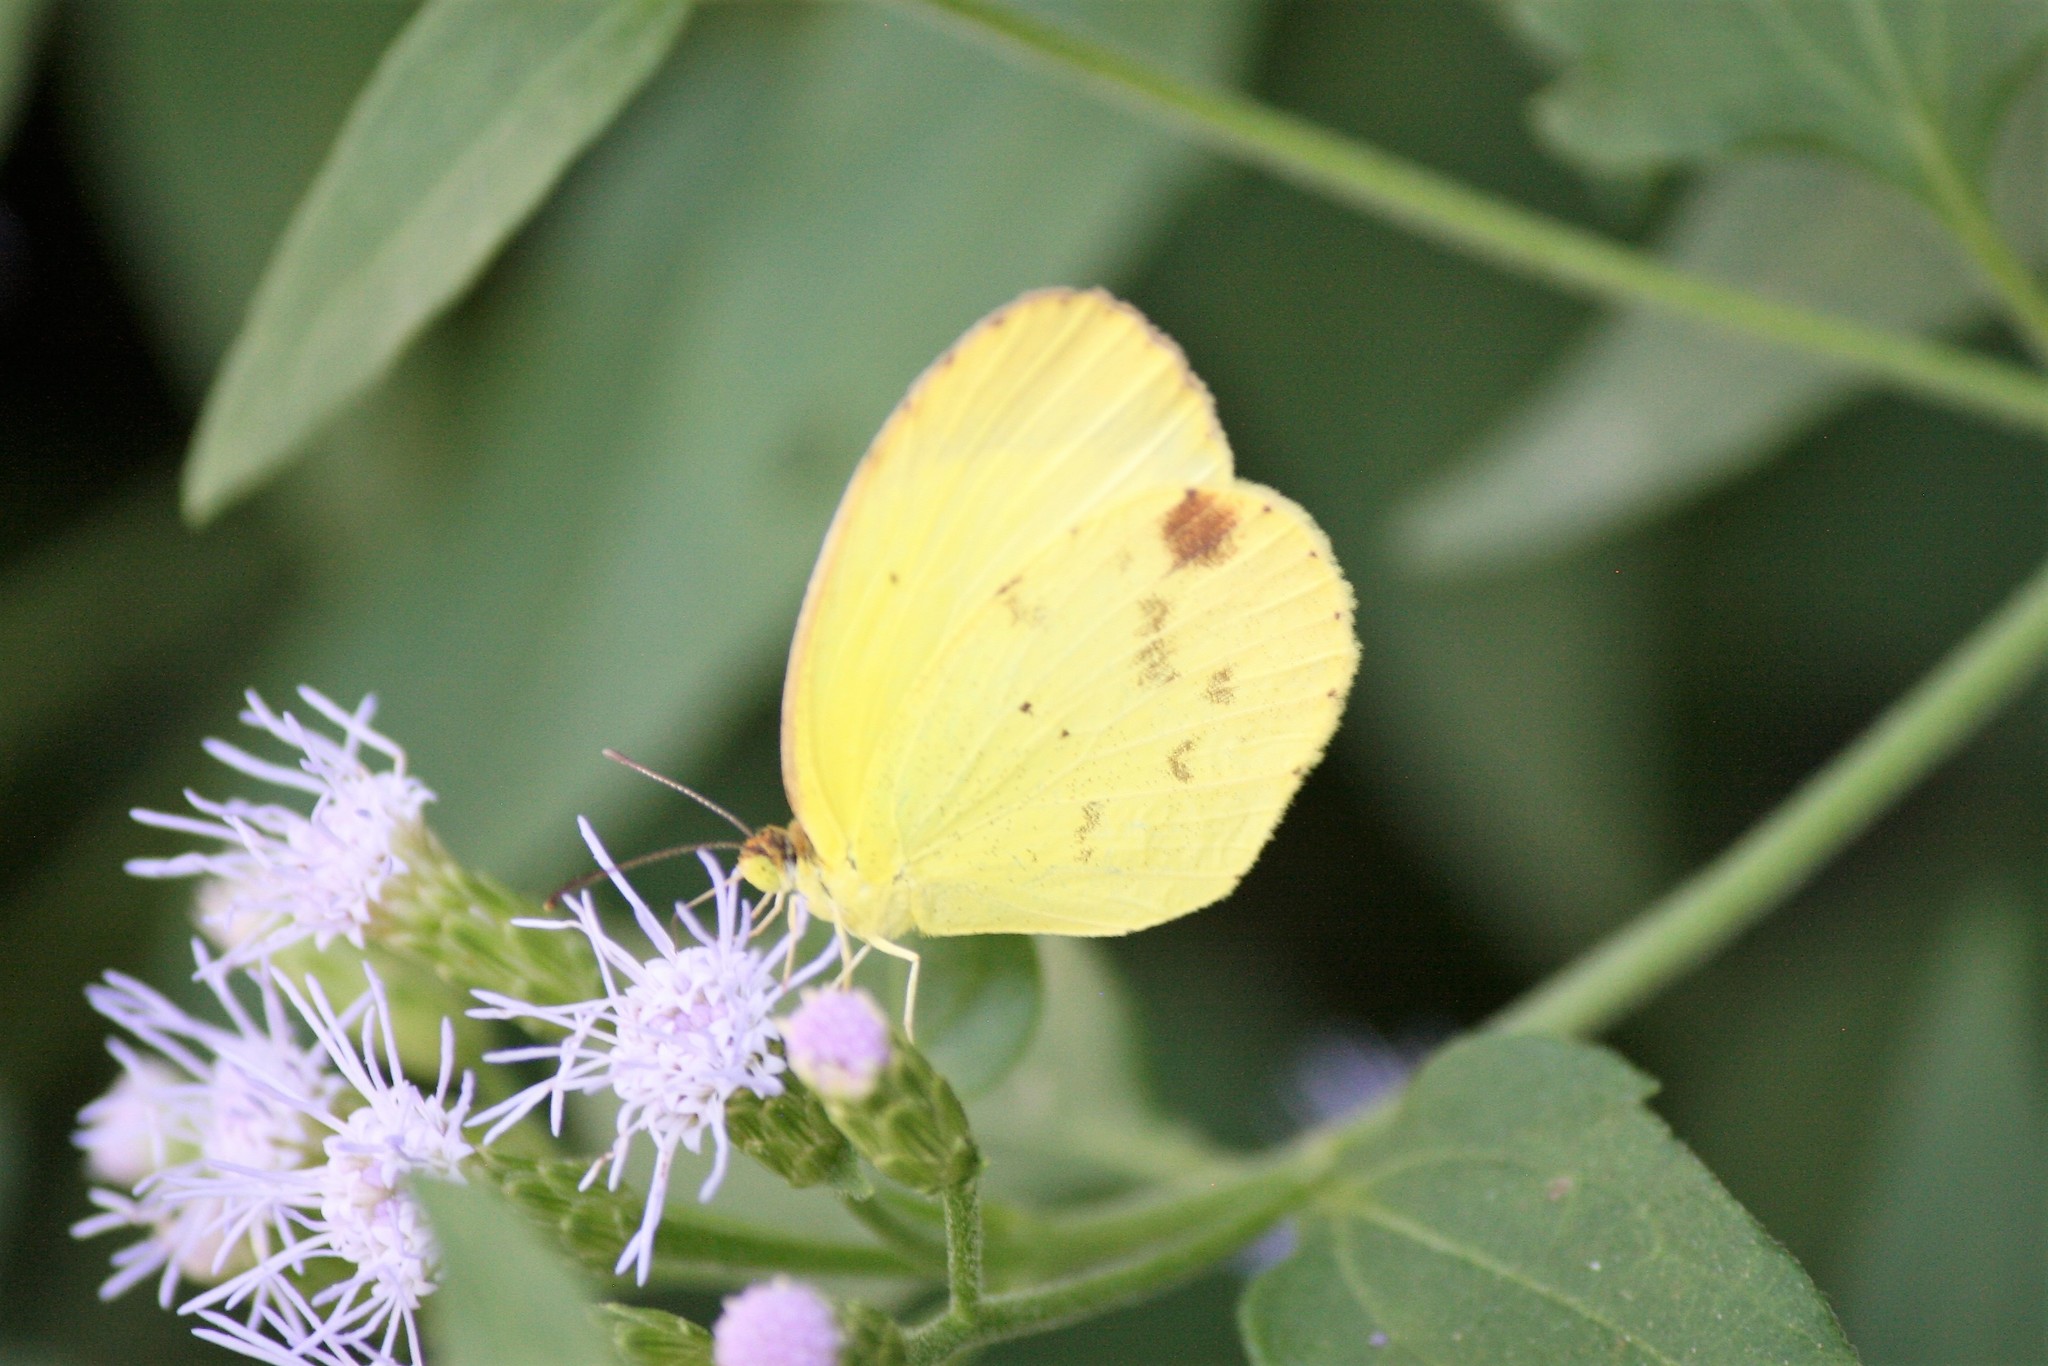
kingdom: Animalia
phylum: Arthropoda
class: Insecta
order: Lepidoptera
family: Pieridae
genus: Pyrisitia
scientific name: Pyrisitia lisa
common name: Little yellow
